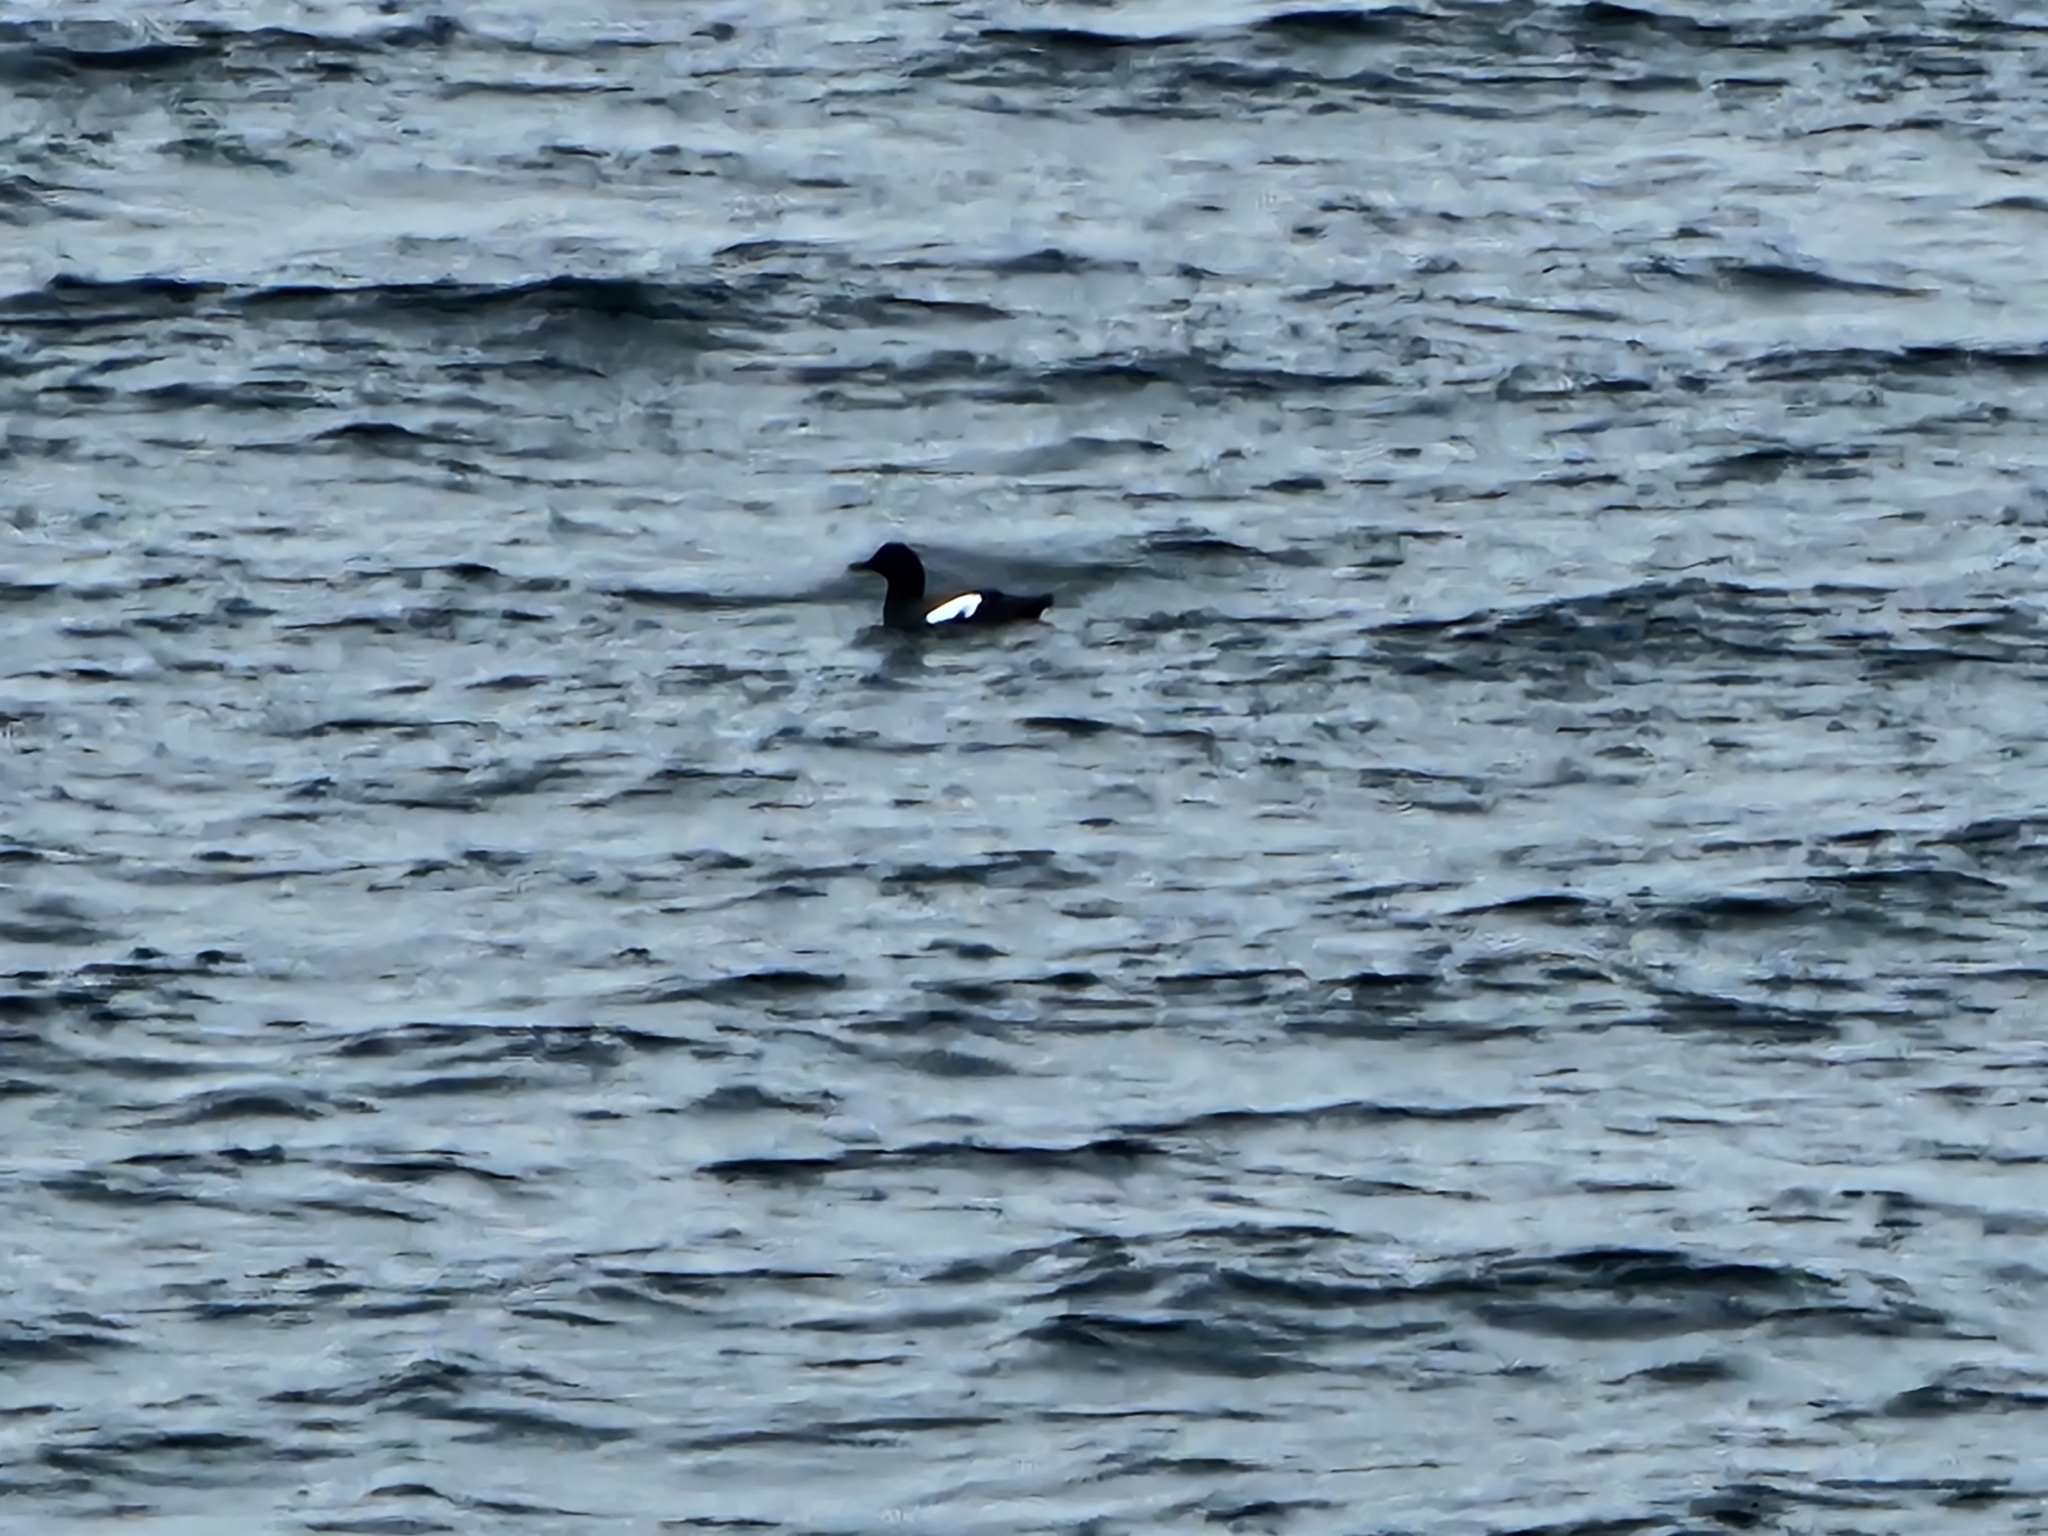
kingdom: Animalia
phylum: Chordata
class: Aves
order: Charadriiformes
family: Alcidae
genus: Cepphus
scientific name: Cepphus columba
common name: Pigeon guillemot
